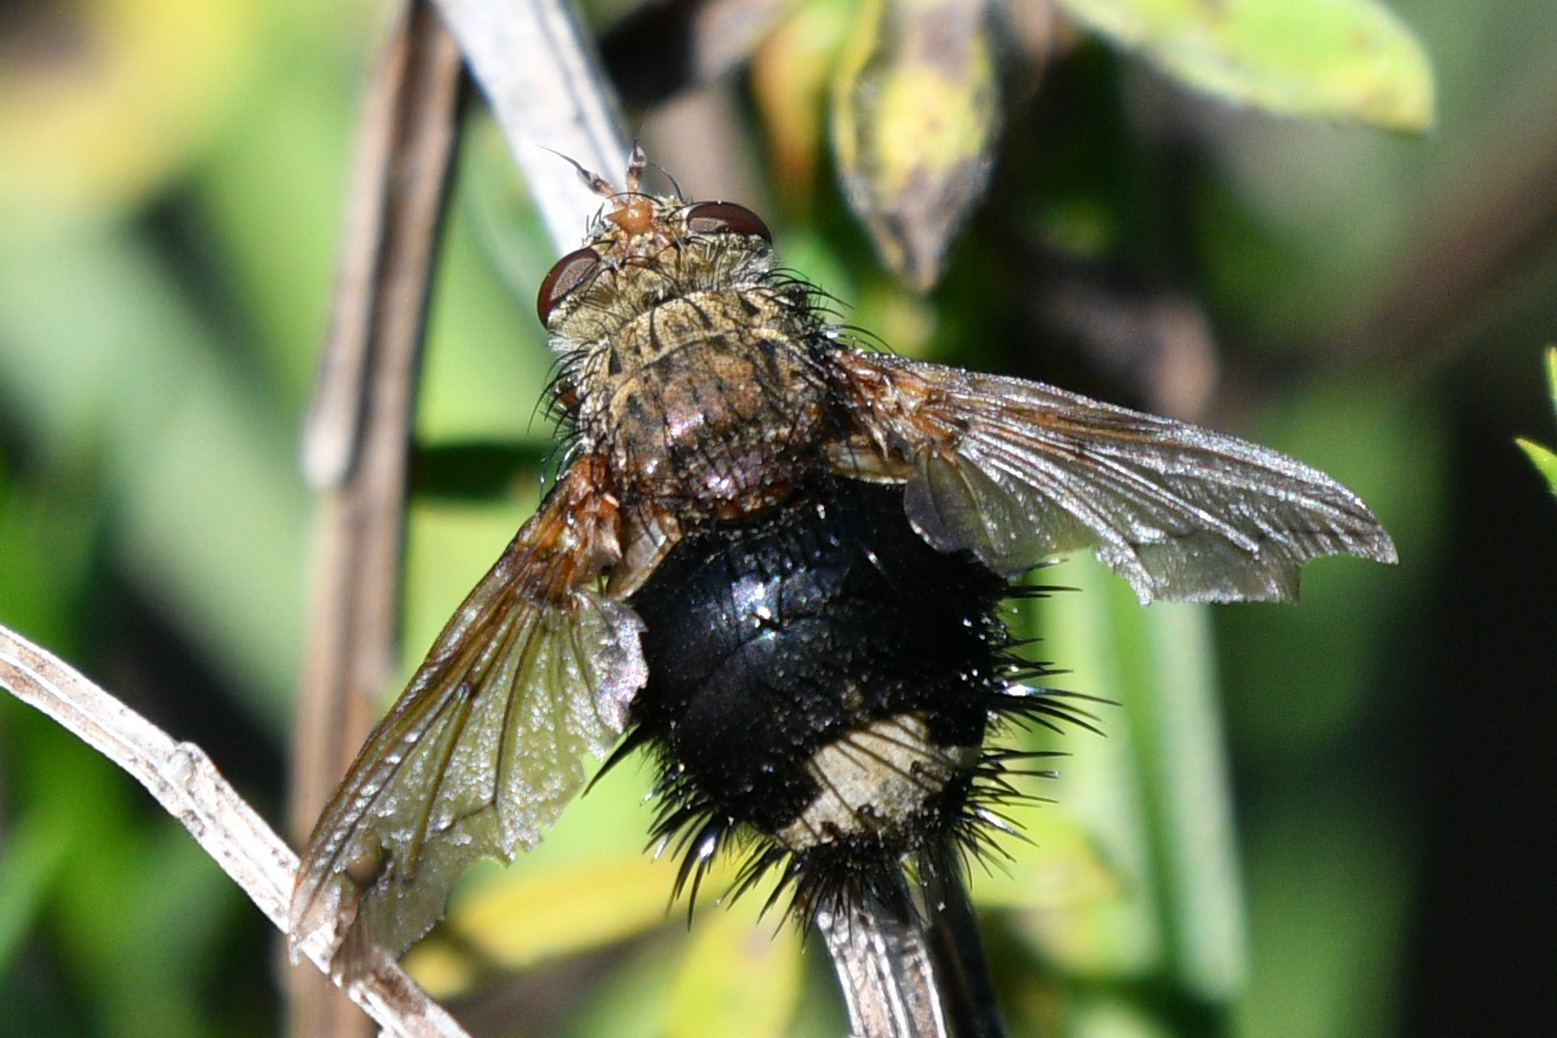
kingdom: Animalia
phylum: Arthropoda
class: Insecta
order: Diptera
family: Tachinidae
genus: Epalpus
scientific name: Epalpus signifer
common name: Early tachinid fly
